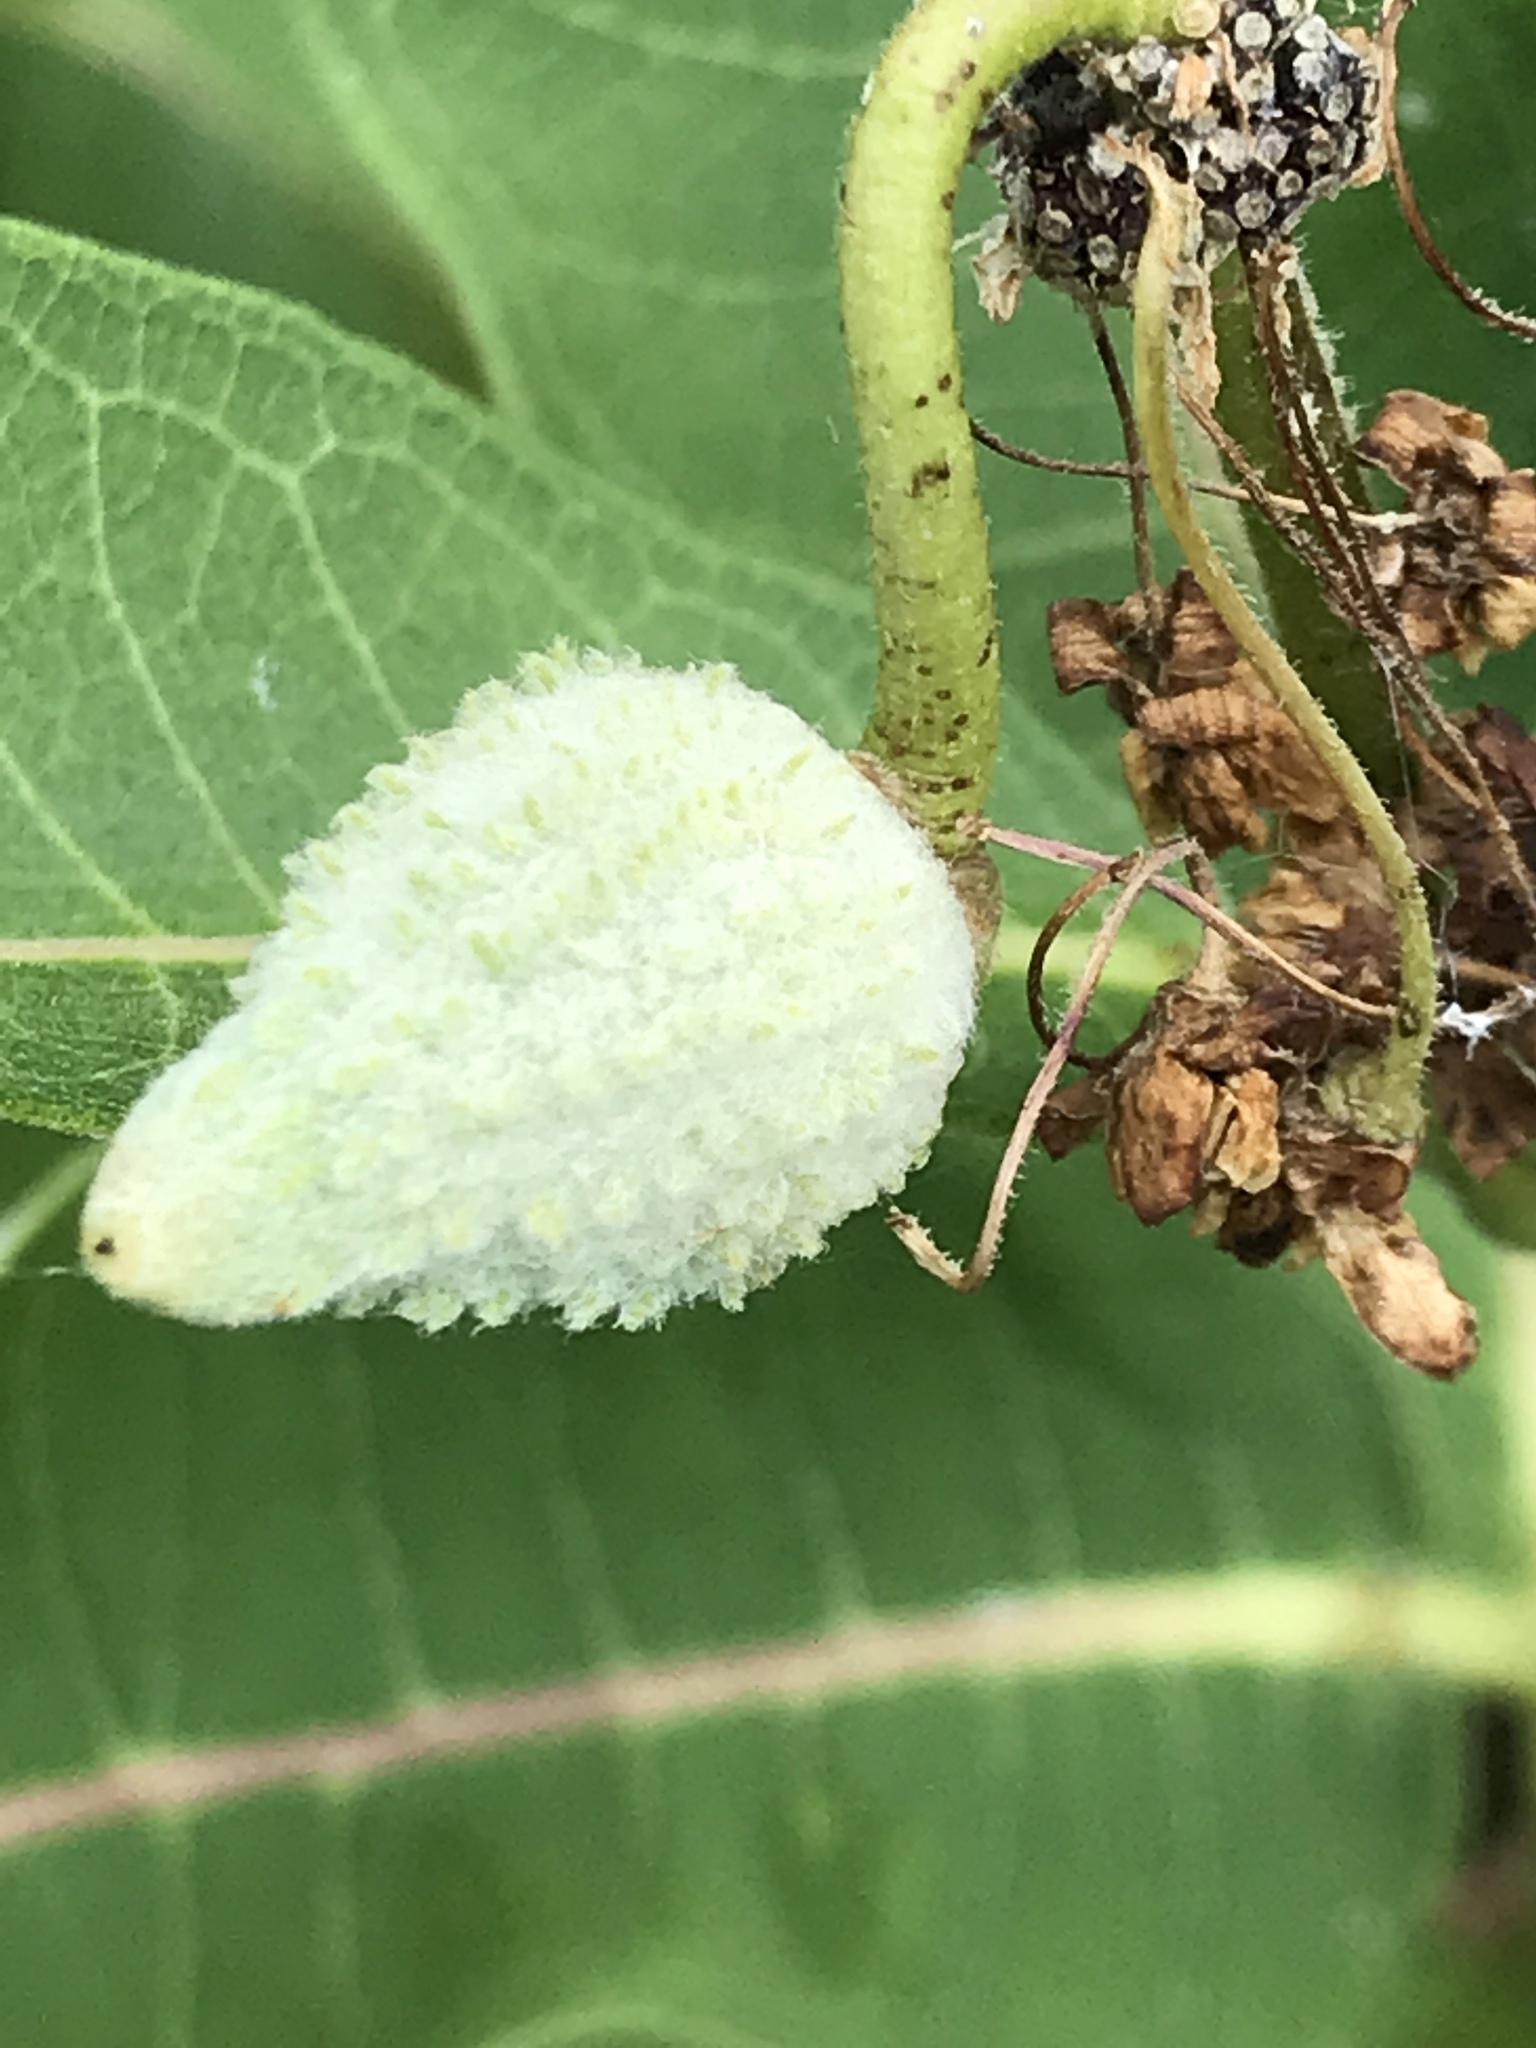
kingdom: Plantae
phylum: Tracheophyta
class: Magnoliopsida
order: Gentianales
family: Apocynaceae
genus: Asclepias
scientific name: Asclepias syriaca
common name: Common milkweed
